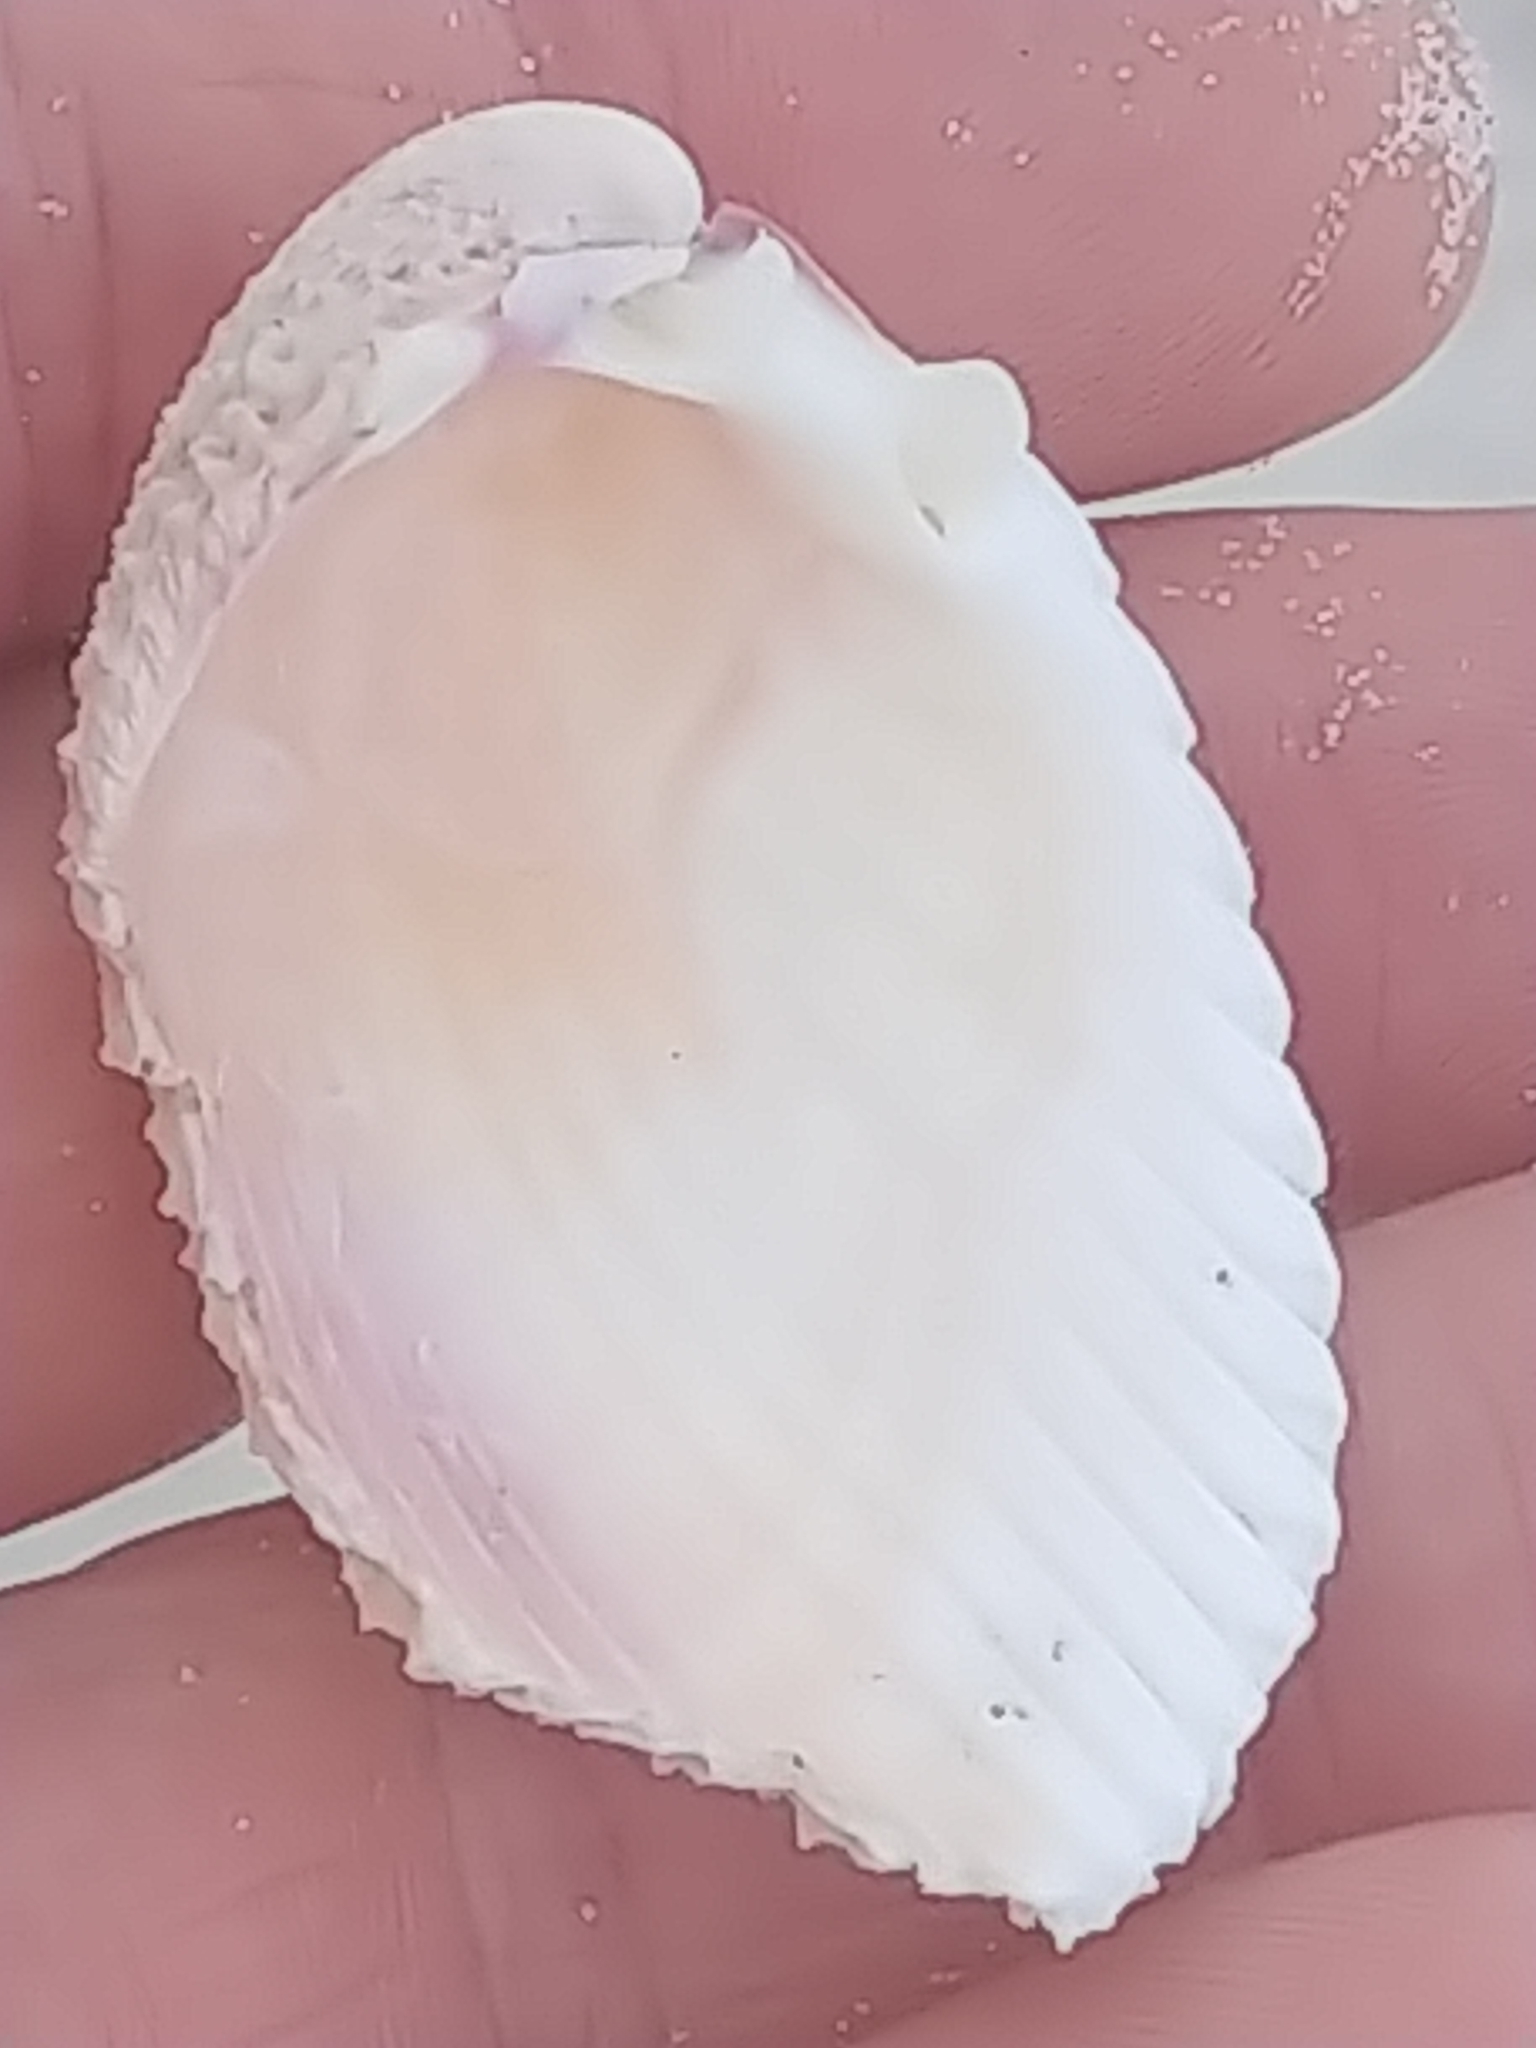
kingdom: Animalia
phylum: Mollusca
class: Bivalvia
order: Cardiida
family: Cardiidae
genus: Trachycardium
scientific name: Trachycardium egmontianum
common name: Florida pricklycockle
